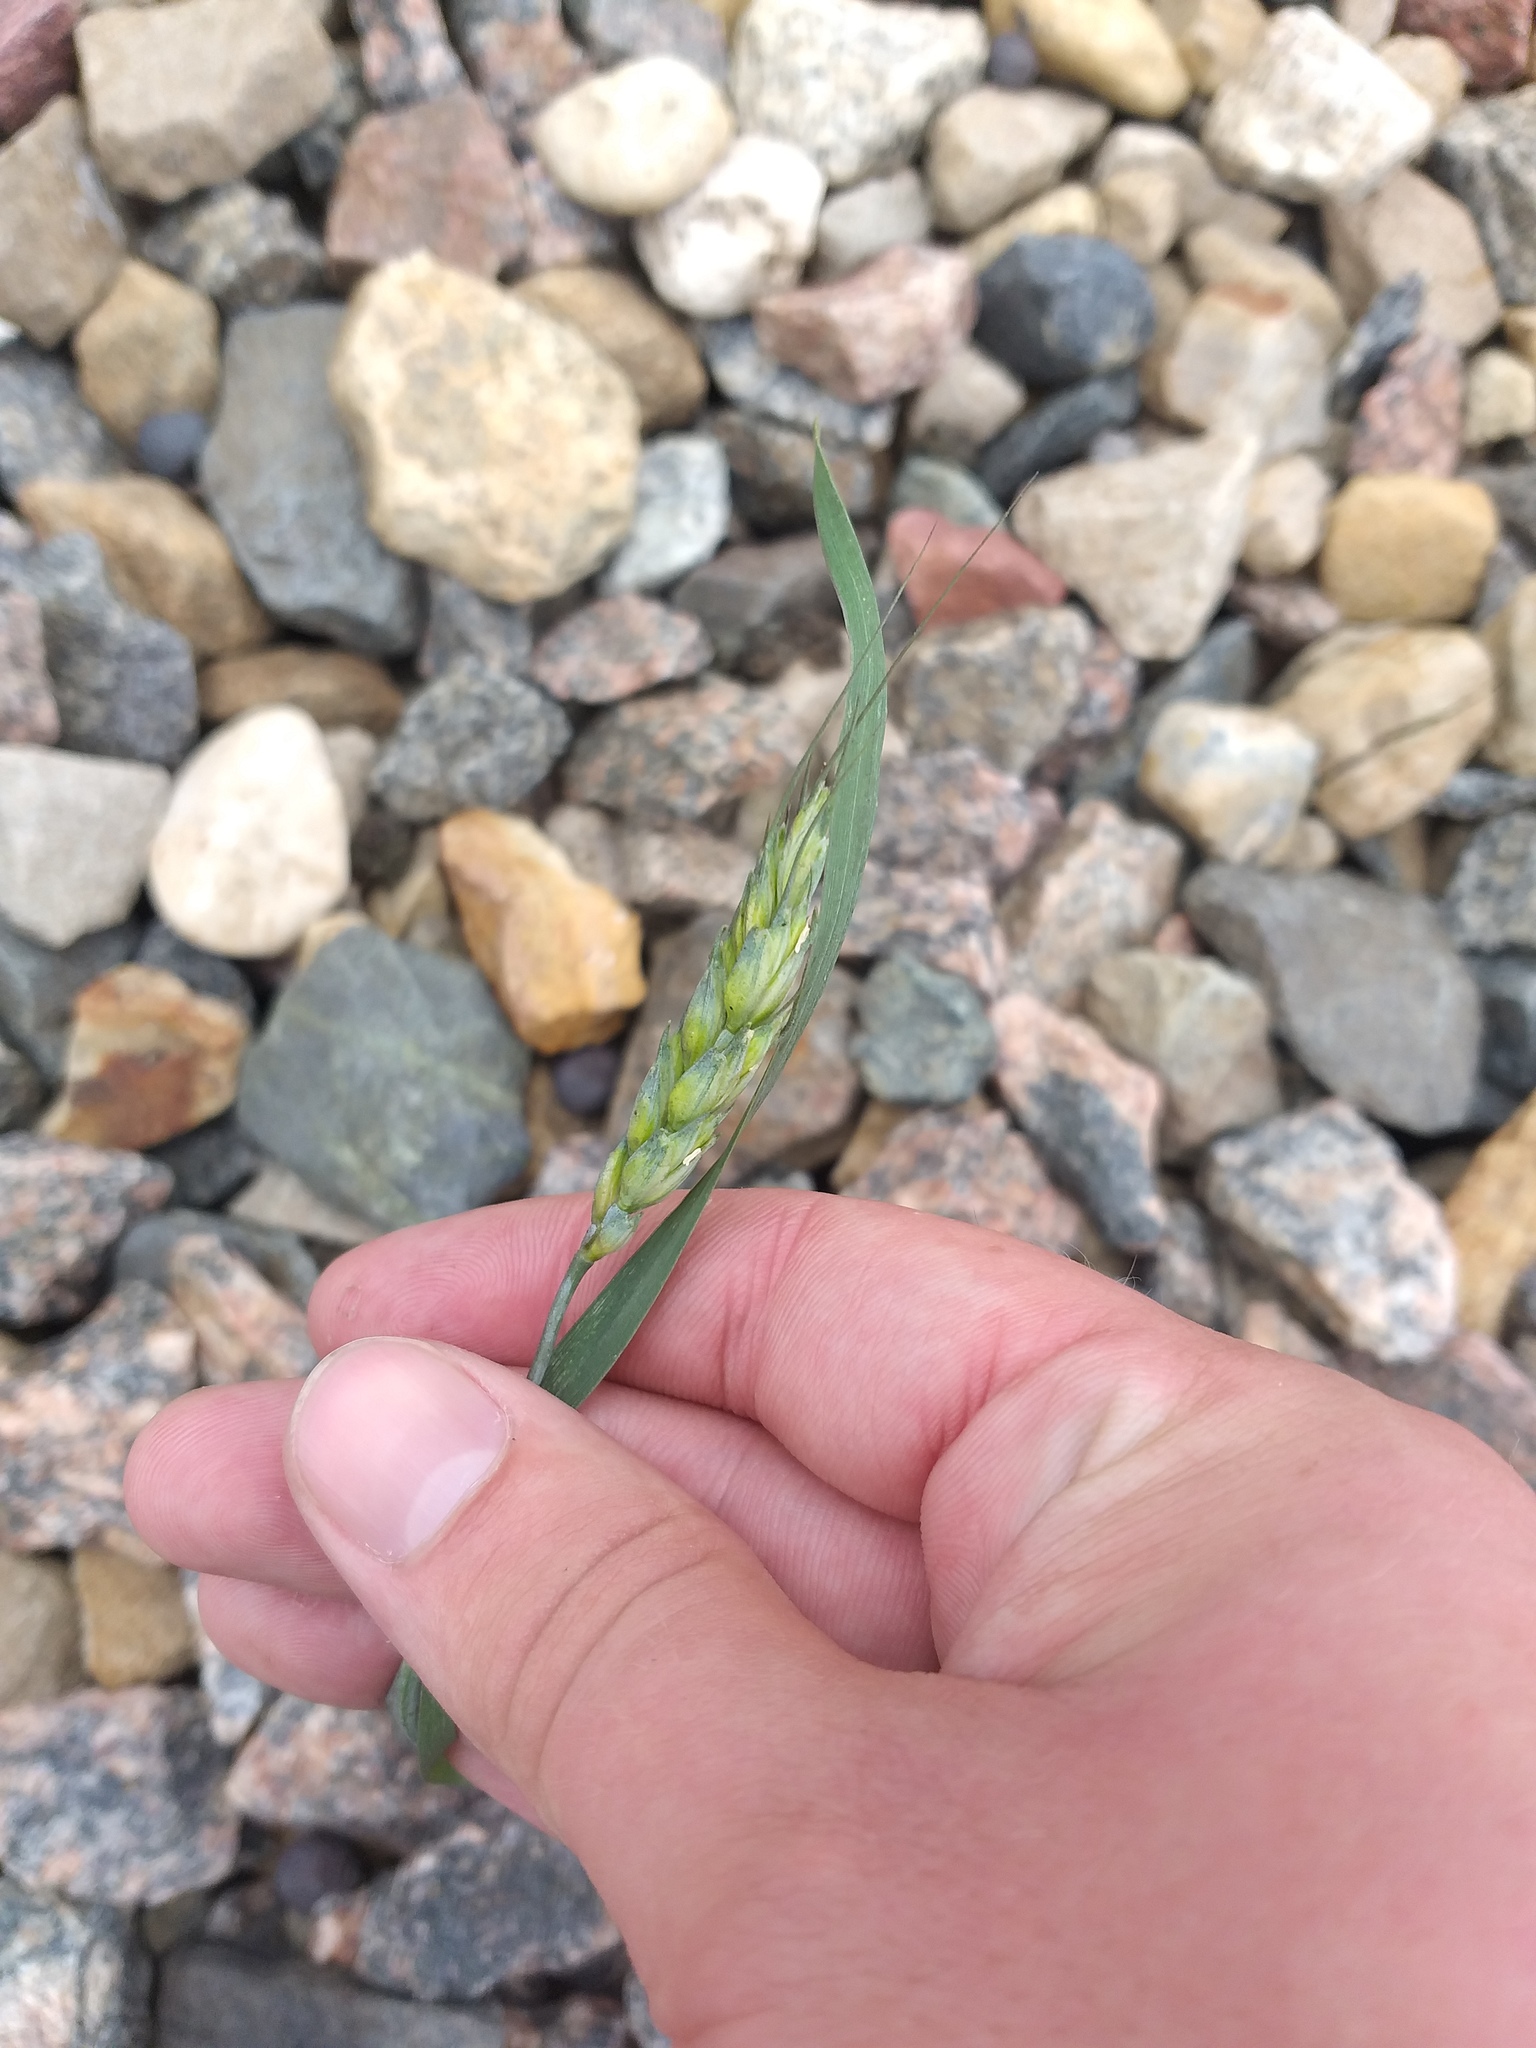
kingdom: Plantae
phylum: Tracheophyta
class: Liliopsida
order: Poales
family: Poaceae
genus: Triticum
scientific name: Triticum aestivum
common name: Common wheat
